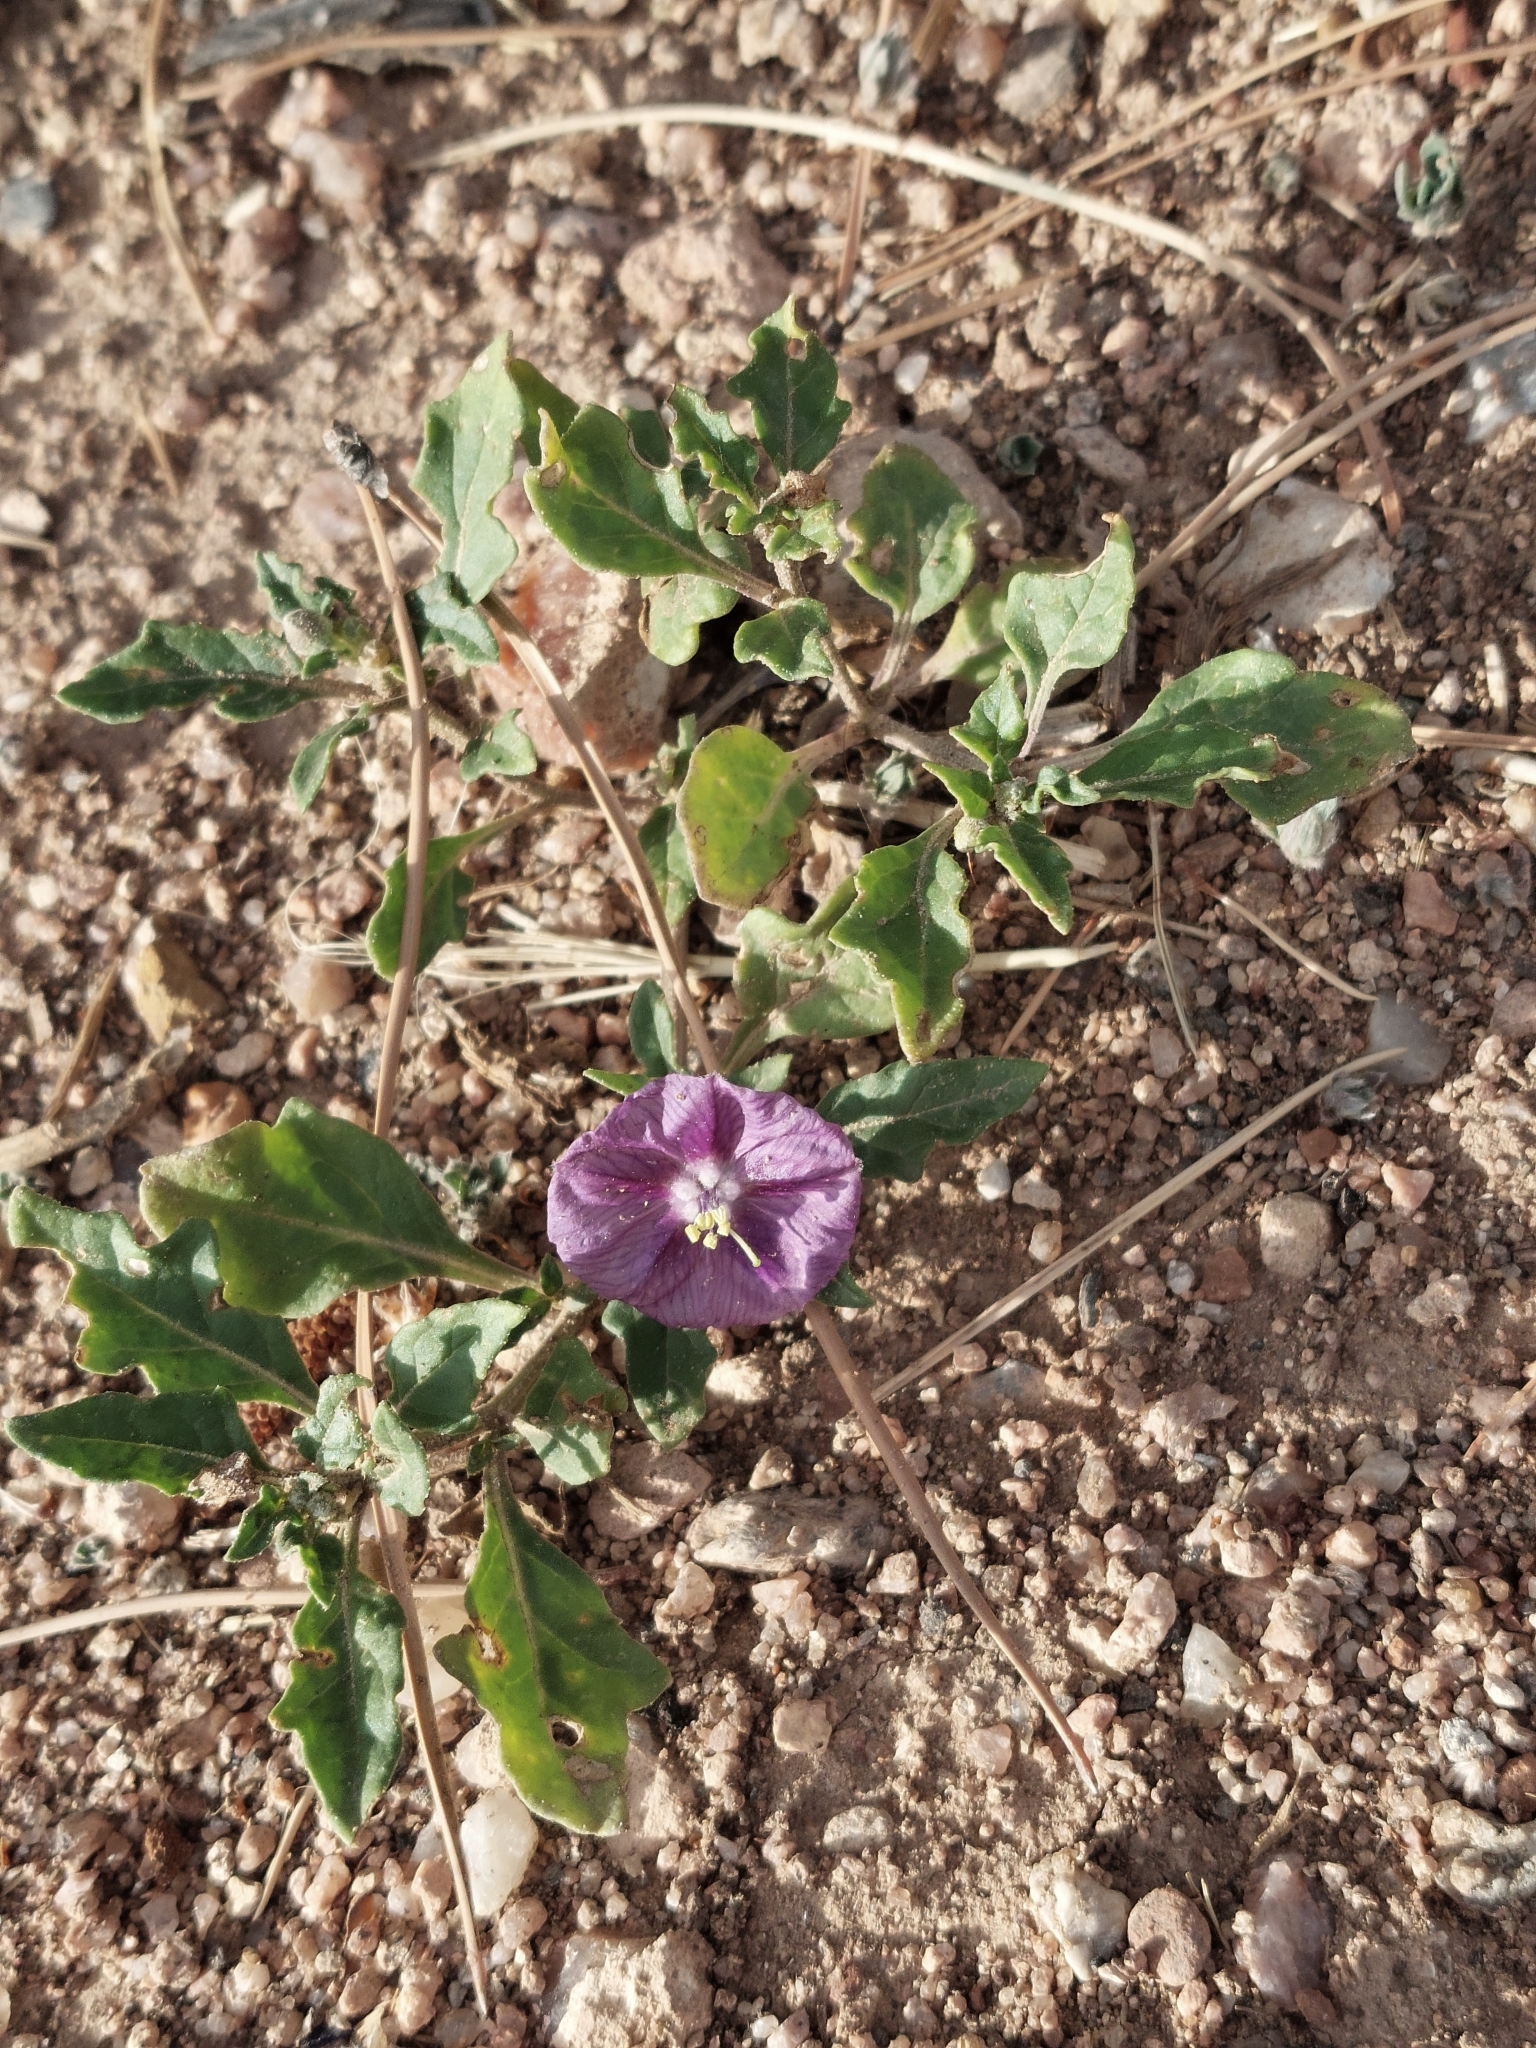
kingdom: Plantae
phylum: Tracheophyta
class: Magnoliopsida
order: Solanales
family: Solanaceae
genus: Quincula
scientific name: Quincula lobata
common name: Purple-ground-cherry
